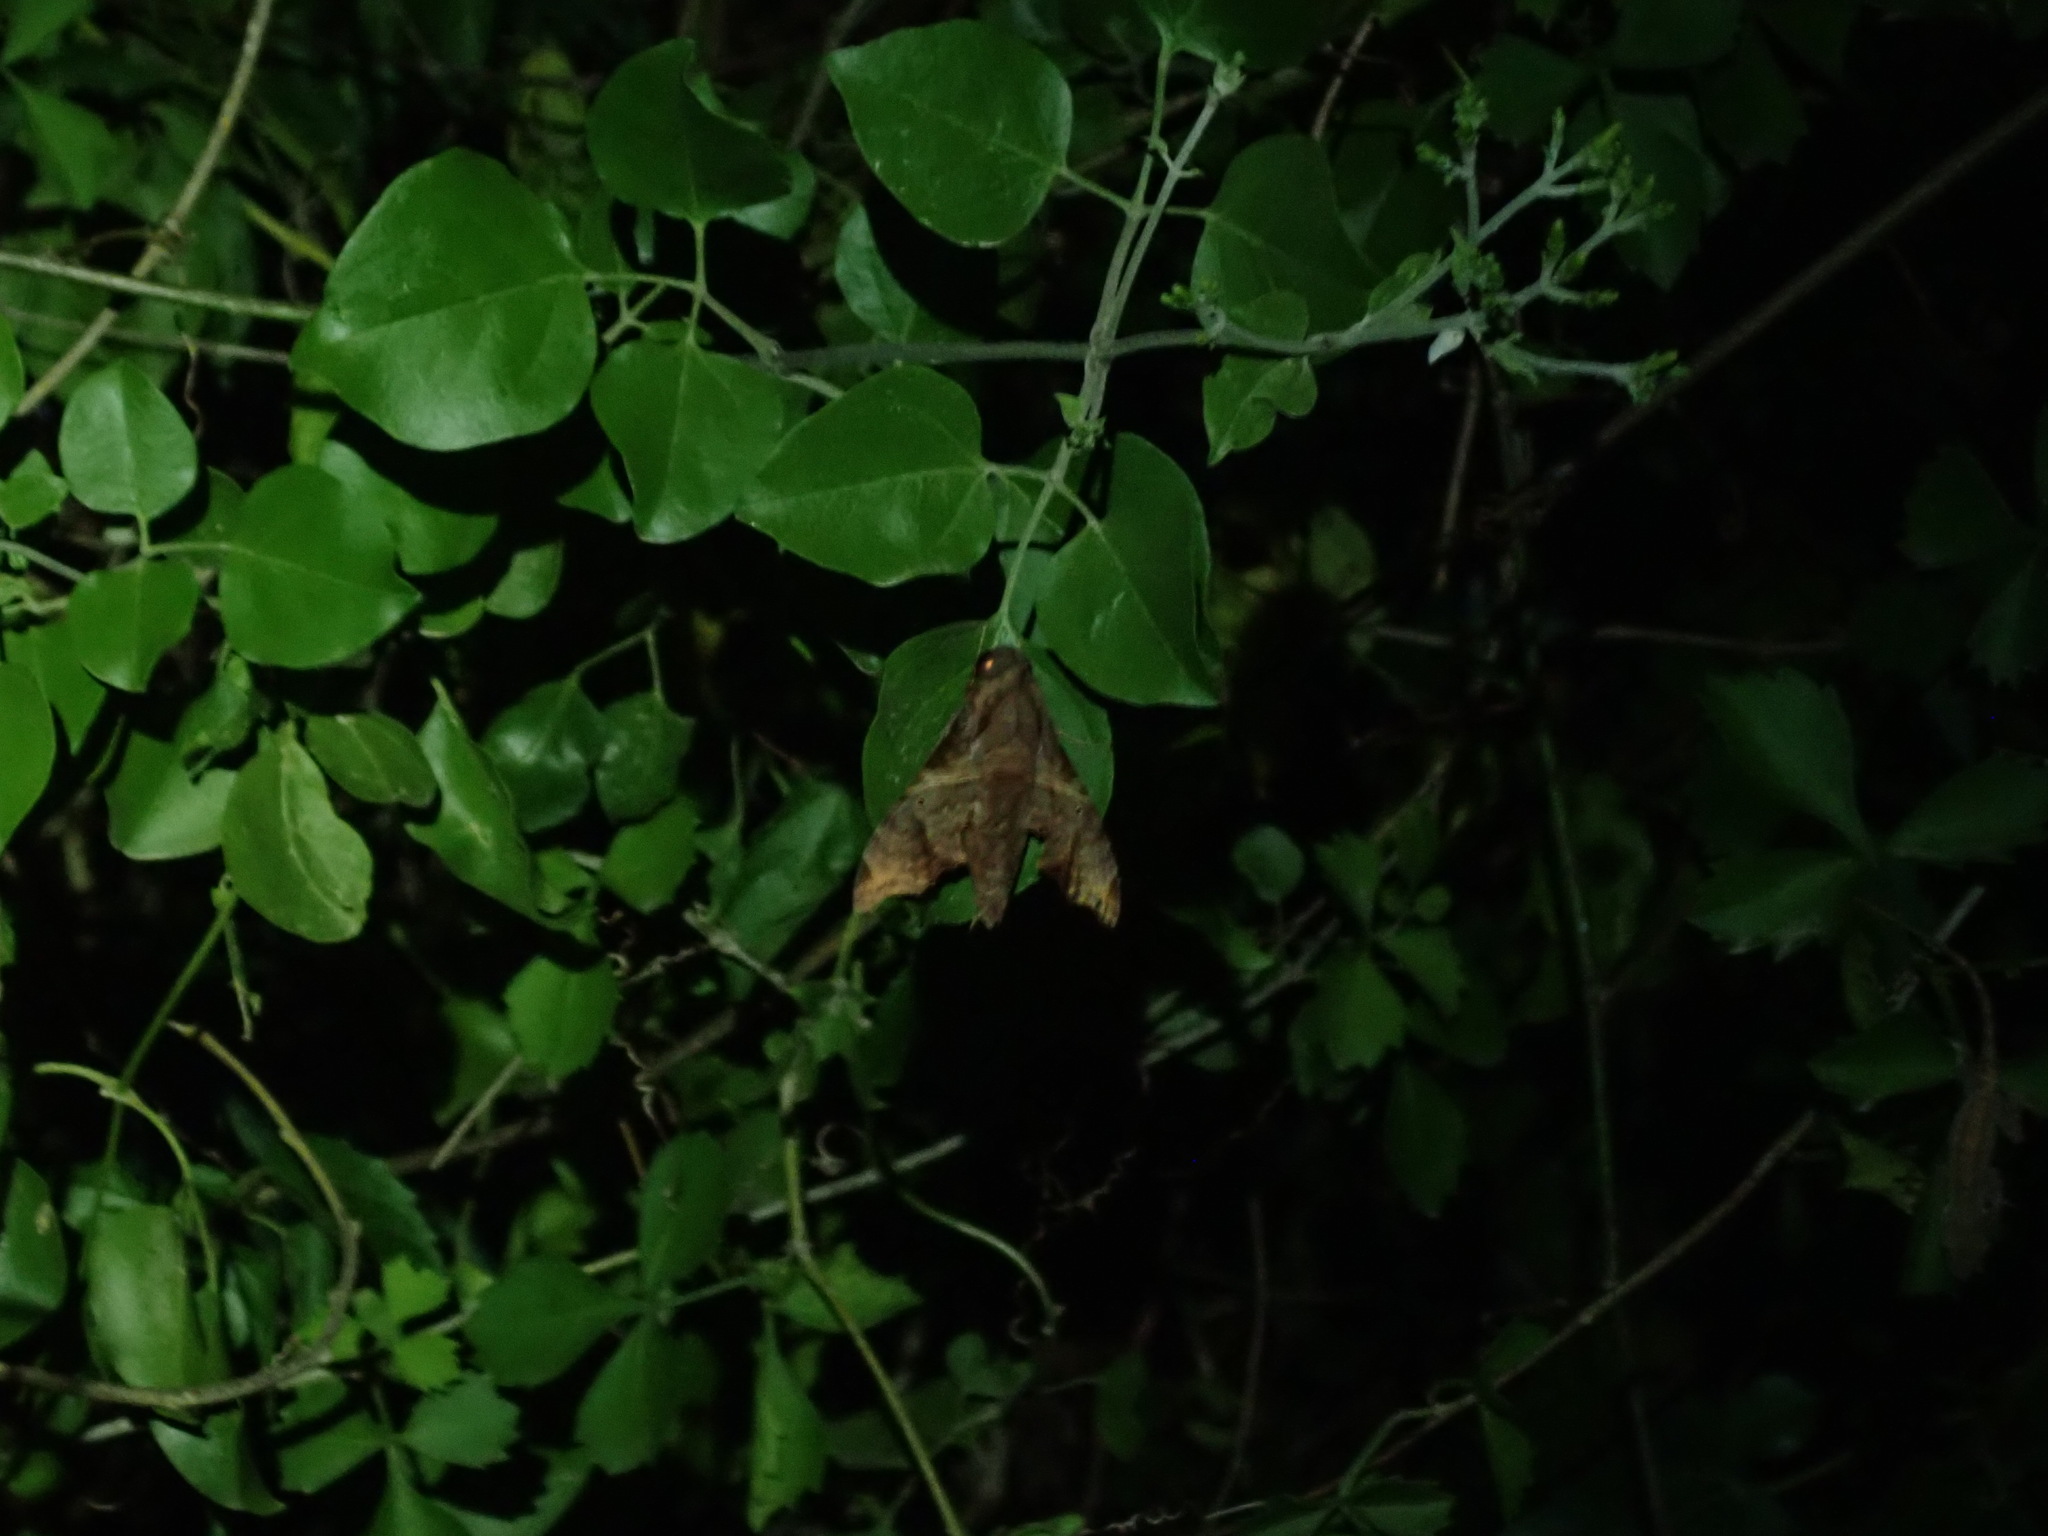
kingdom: Animalia
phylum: Arthropoda
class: Insecta
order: Lepidoptera
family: Sphingidae
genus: Enyo
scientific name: Enyo lugubris
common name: Mournful sphinx
